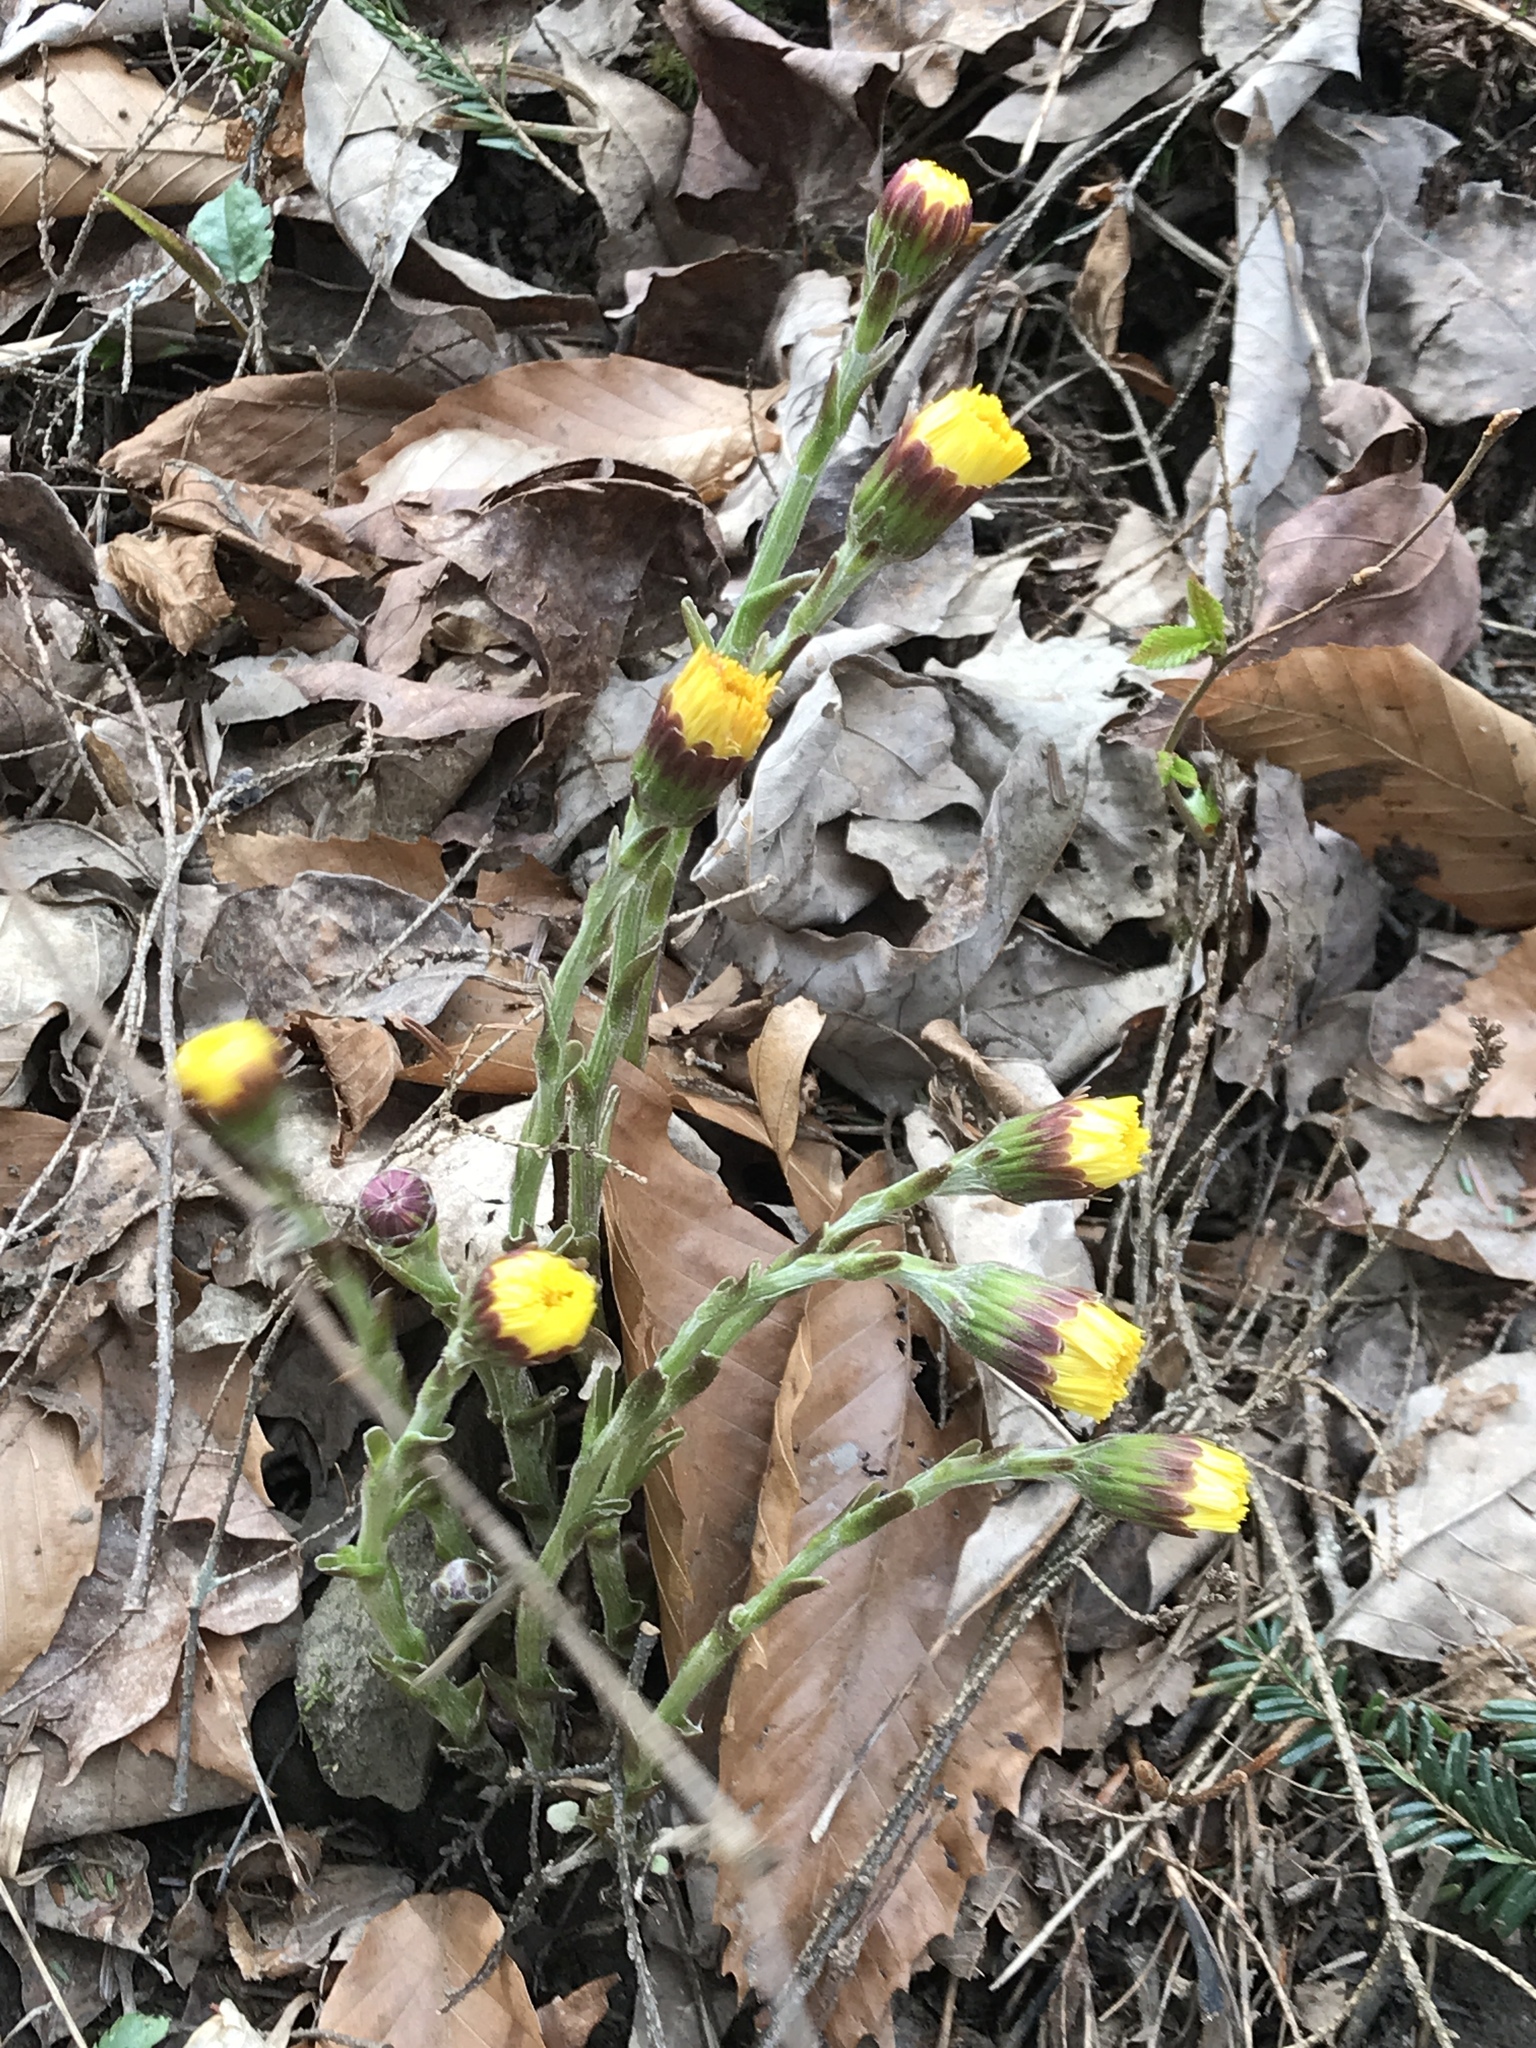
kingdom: Plantae
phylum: Tracheophyta
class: Magnoliopsida
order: Asterales
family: Asteraceae
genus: Tussilago
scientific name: Tussilago farfara
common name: Coltsfoot
